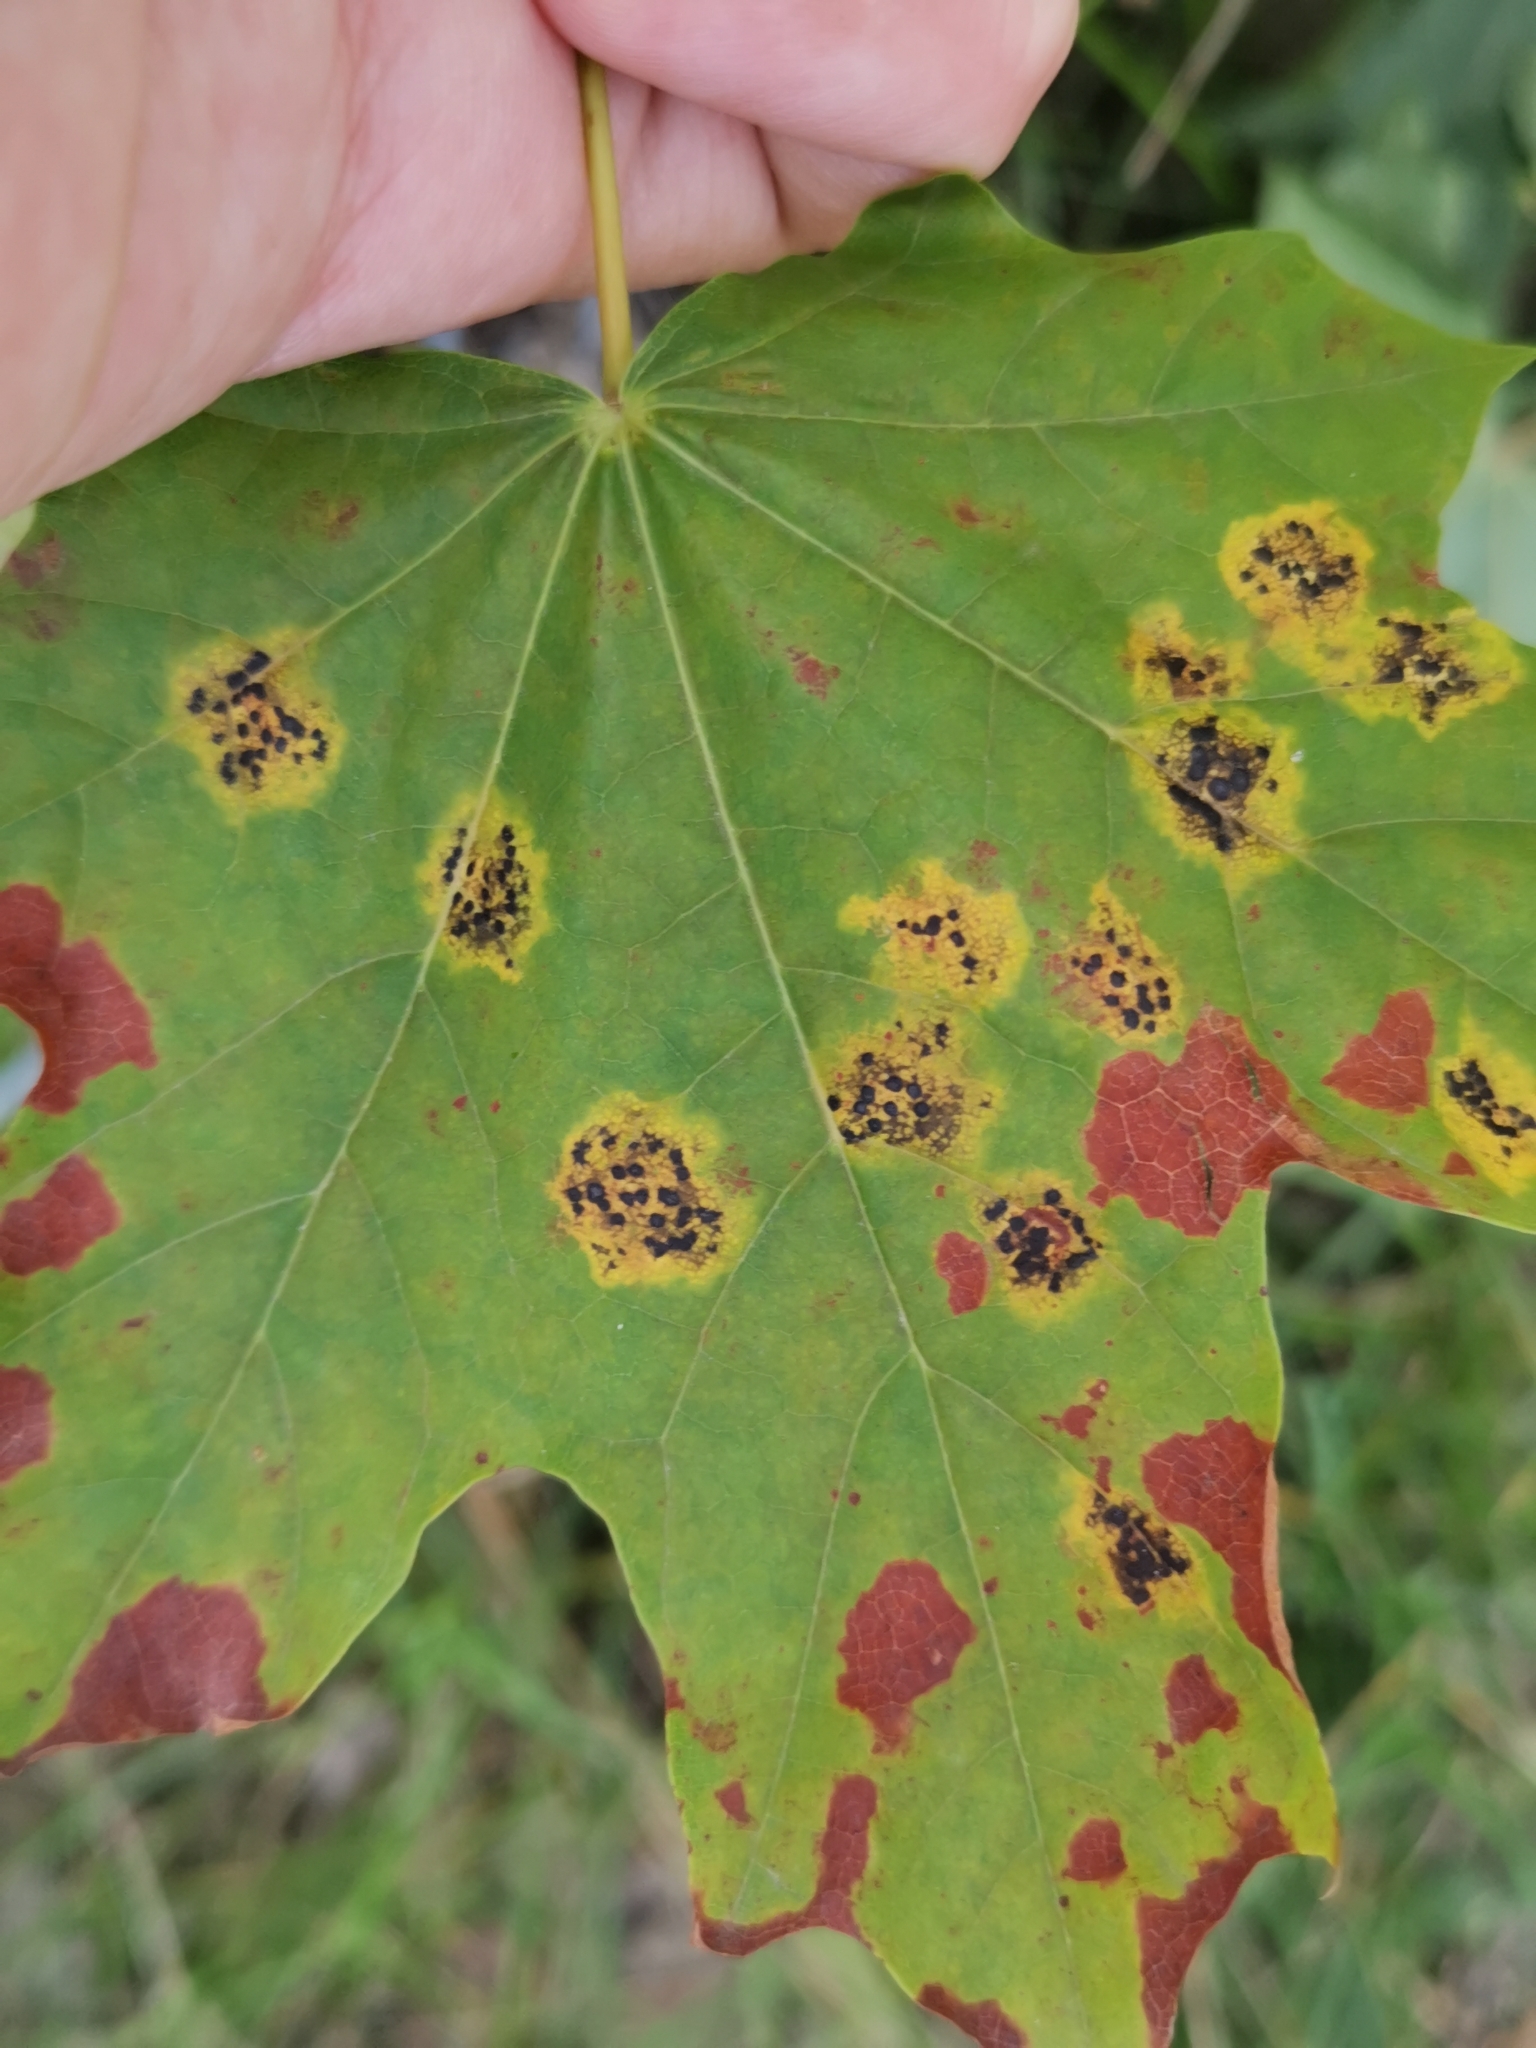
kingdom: Fungi
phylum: Ascomycota
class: Leotiomycetes
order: Rhytismatales
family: Rhytismataceae
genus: Rhytisma
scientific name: Rhytisma acerinum
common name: European tar spot
